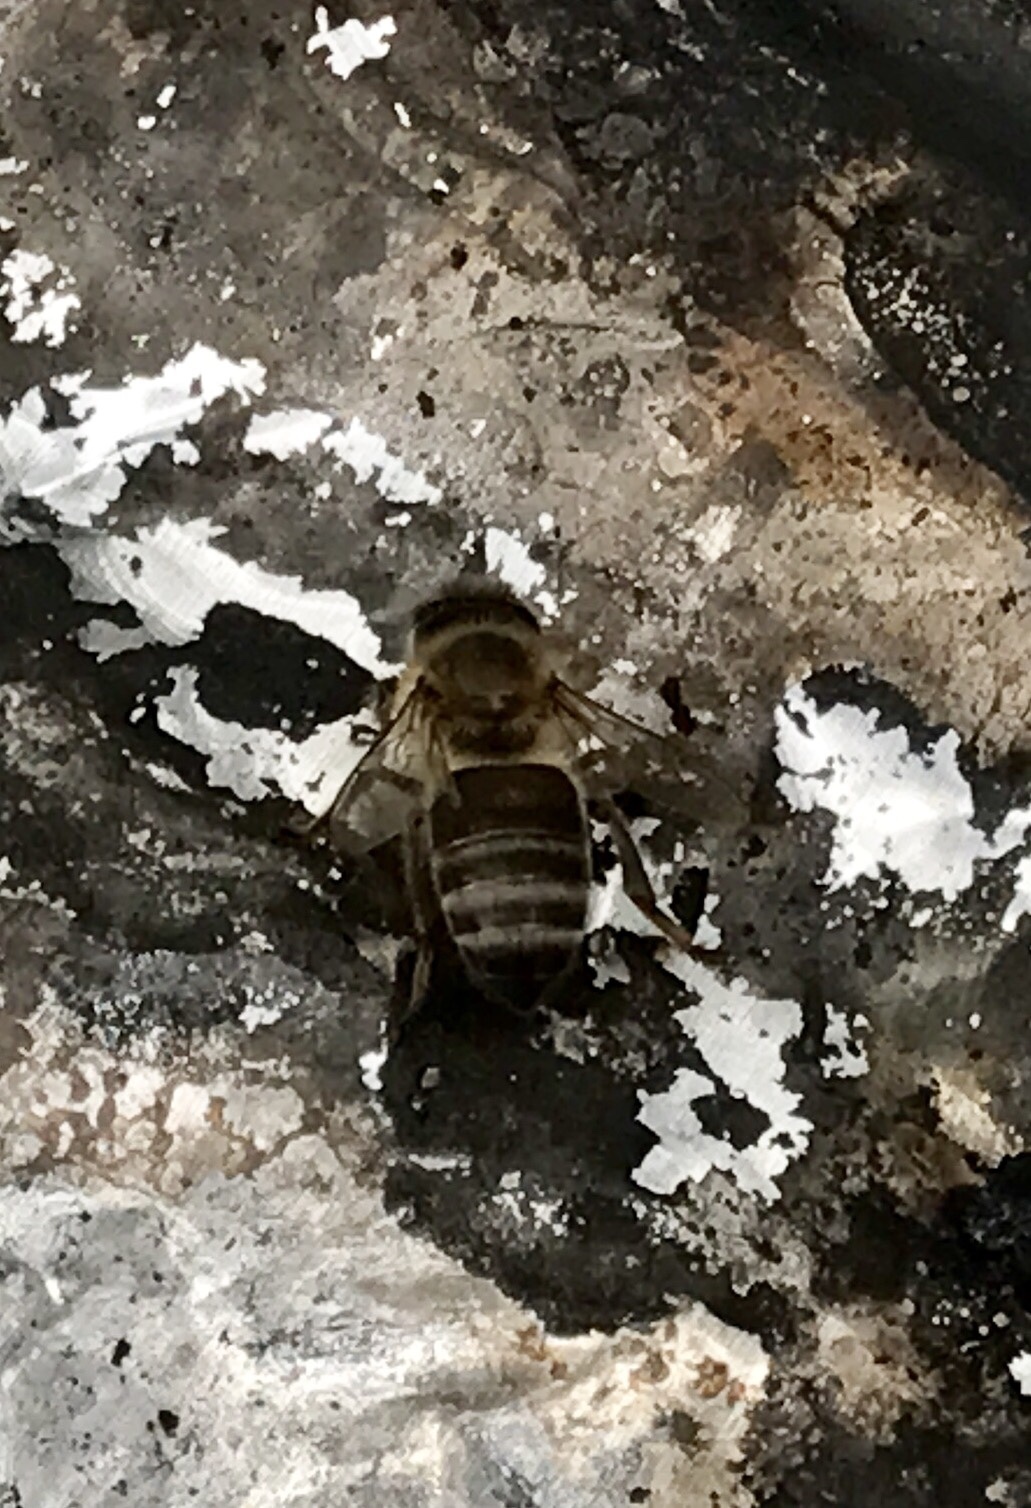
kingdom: Animalia
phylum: Arthropoda
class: Insecta
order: Hymenoptera
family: Apidae
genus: Apis
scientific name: Apis mellifera
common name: Honey bee
